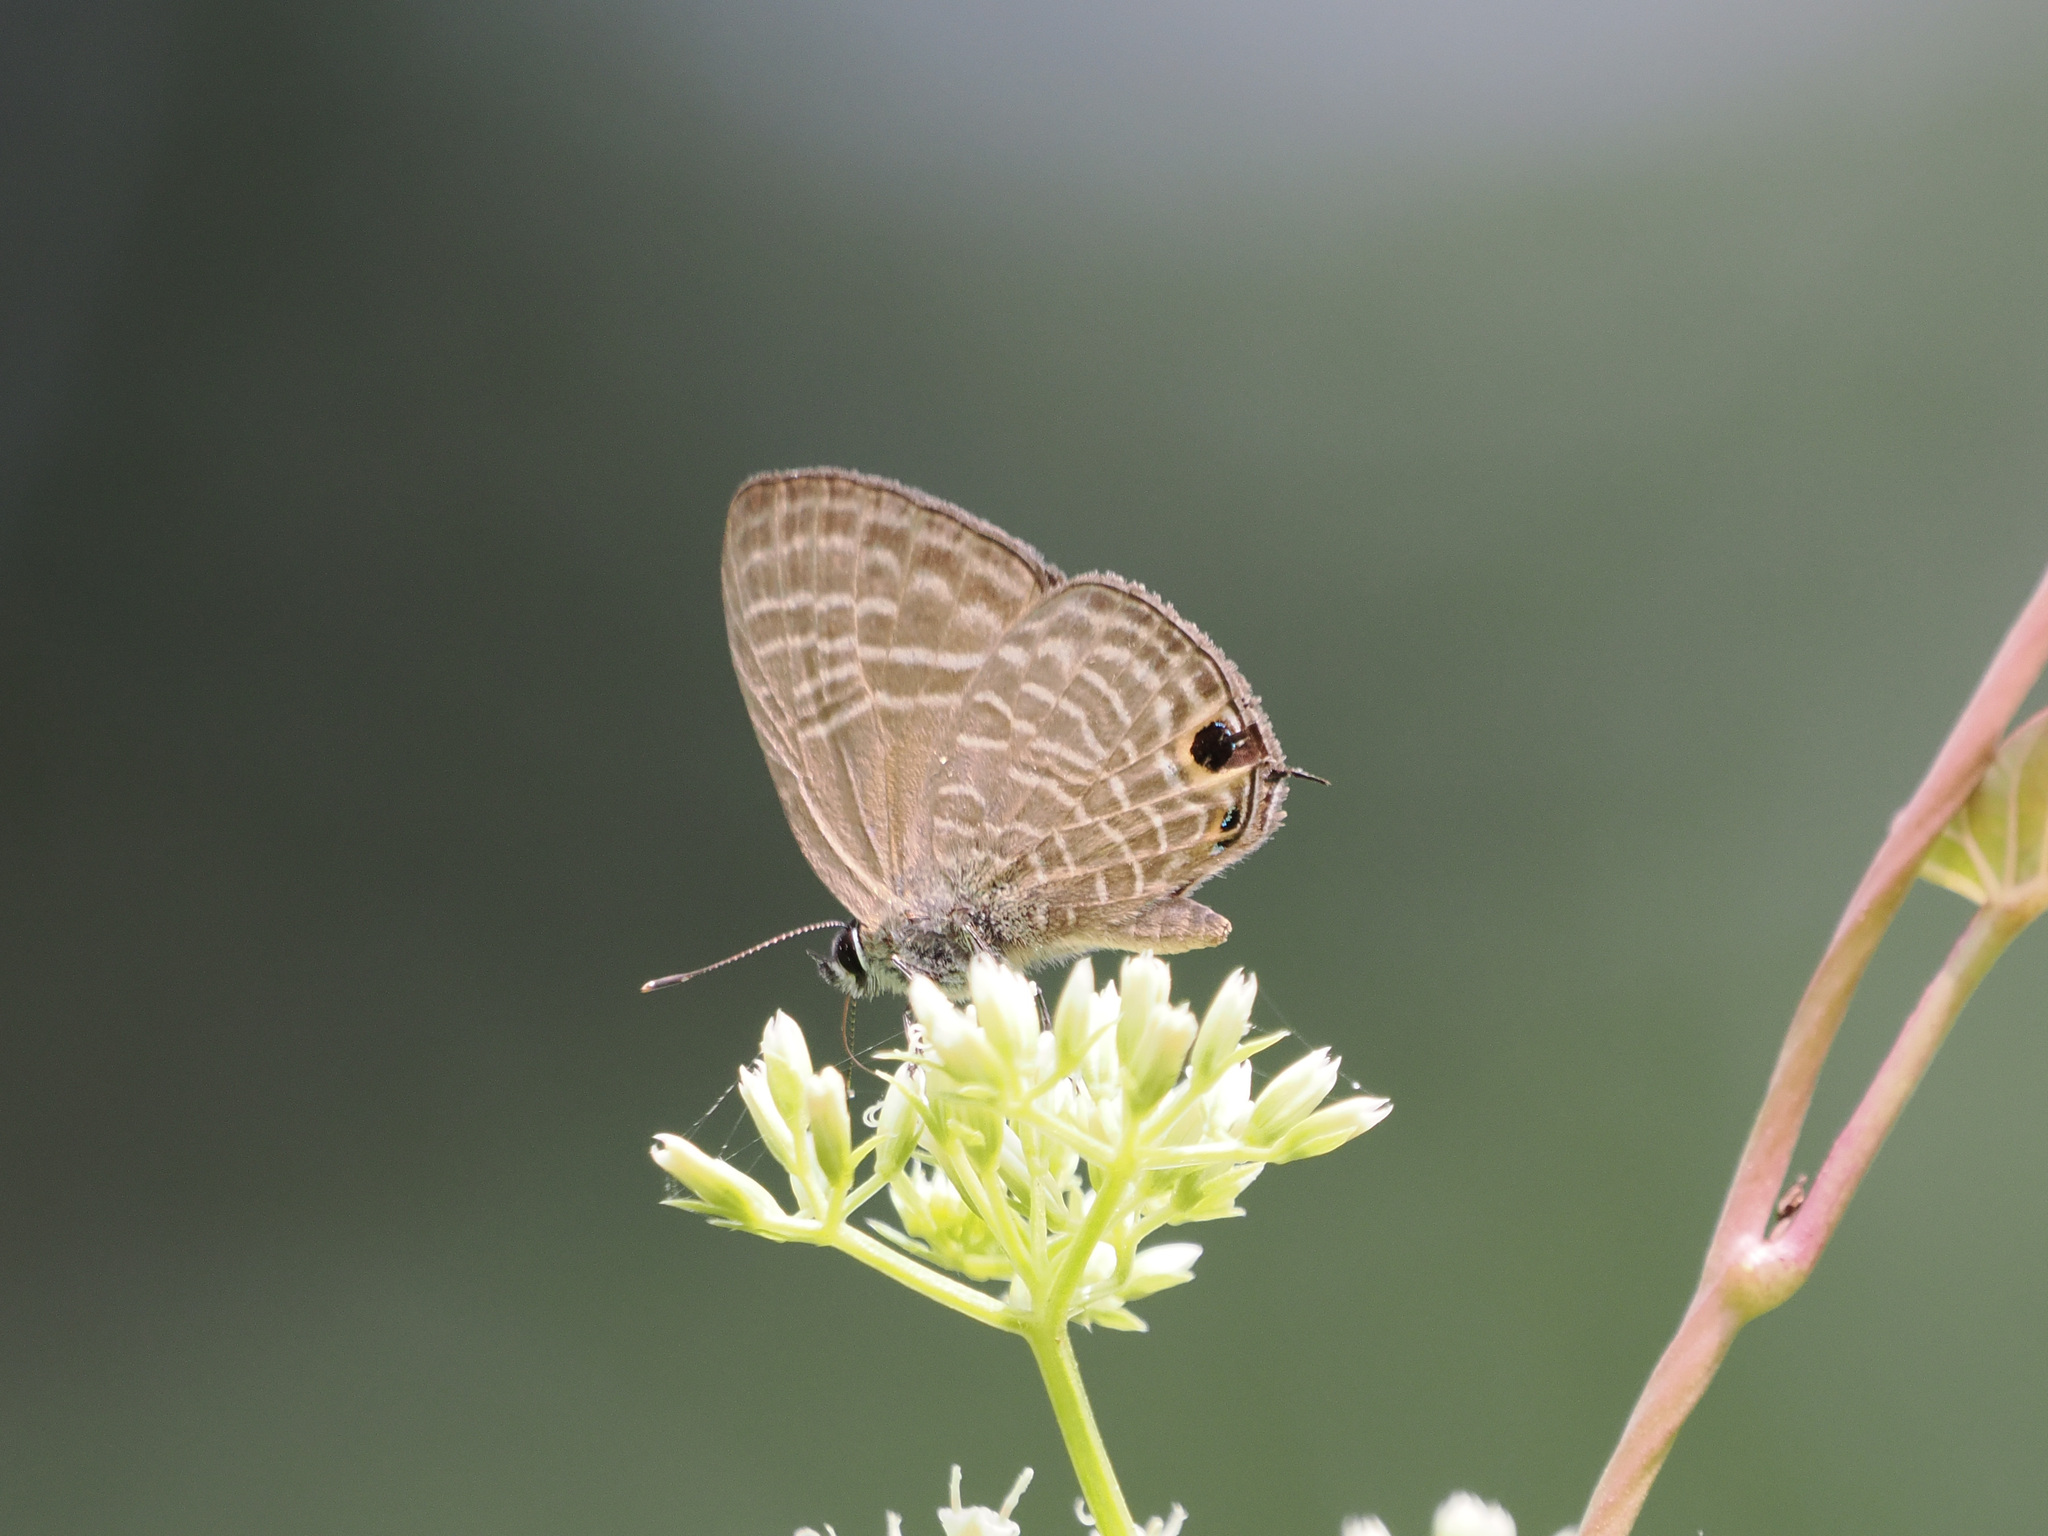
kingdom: Animalia
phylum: Arthropoda
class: Insecta
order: Lepidoptera
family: Lycaenidae
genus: Nacaduba
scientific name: Nacaduba pactolus
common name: Large fourline blue
